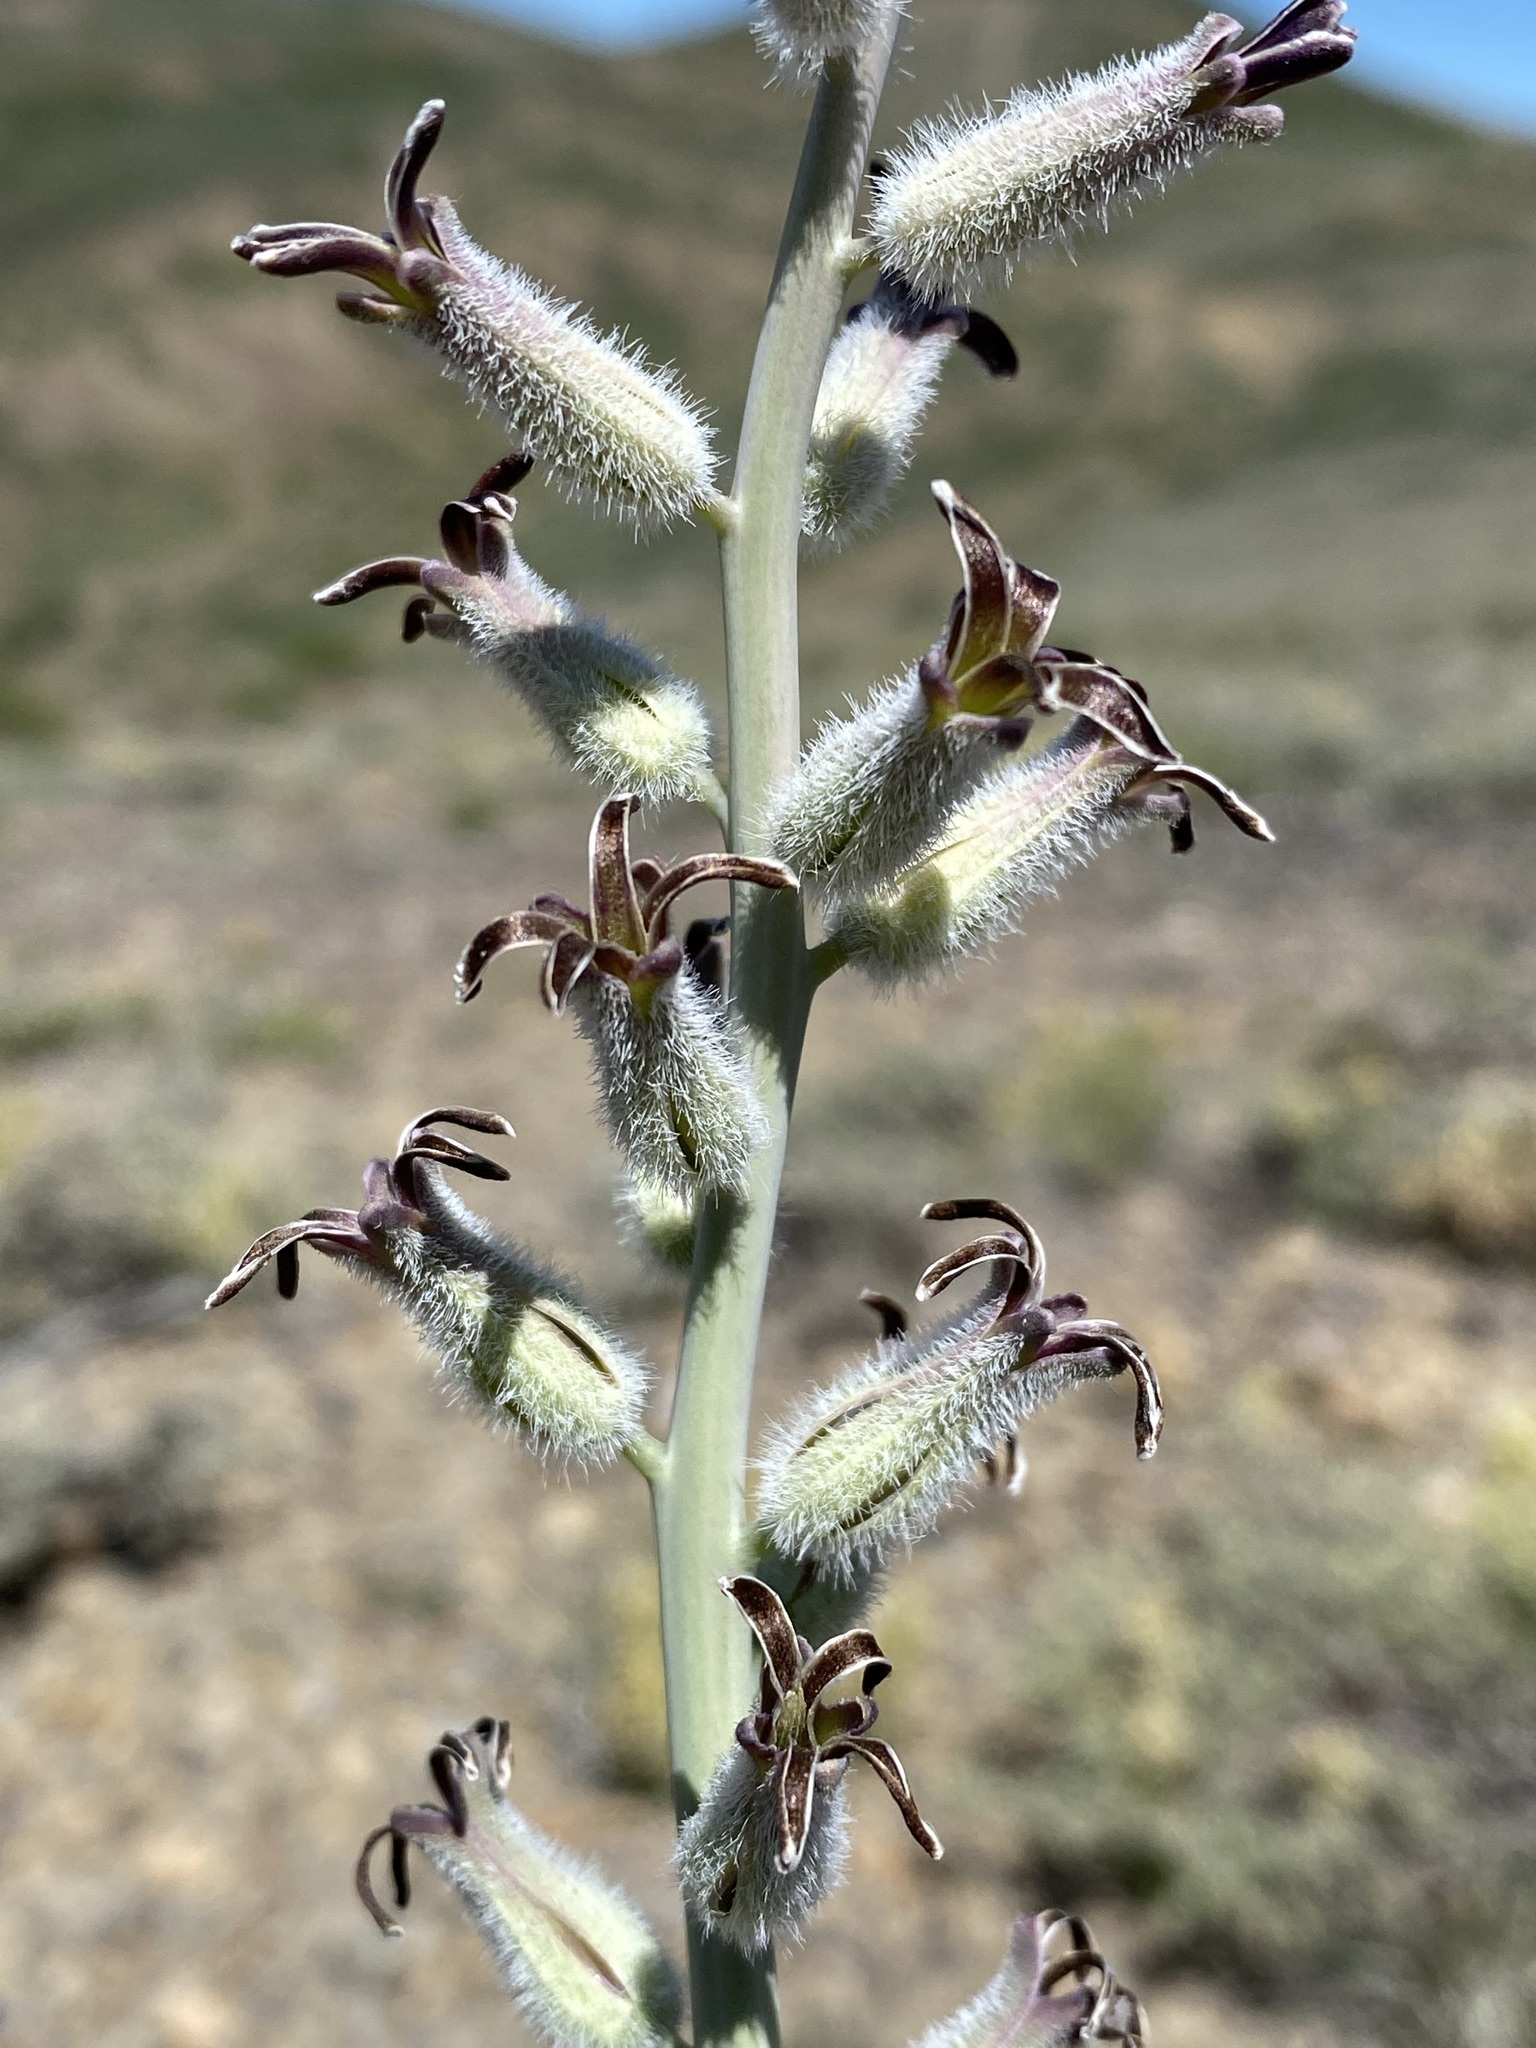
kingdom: Plantae
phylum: Tracheophyta
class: Magnoliopsida
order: Brassicales
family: Brassicaceae
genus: Streptanthus
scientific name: Streptanthus crassicaulis
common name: Thick-stem wild cabbage
